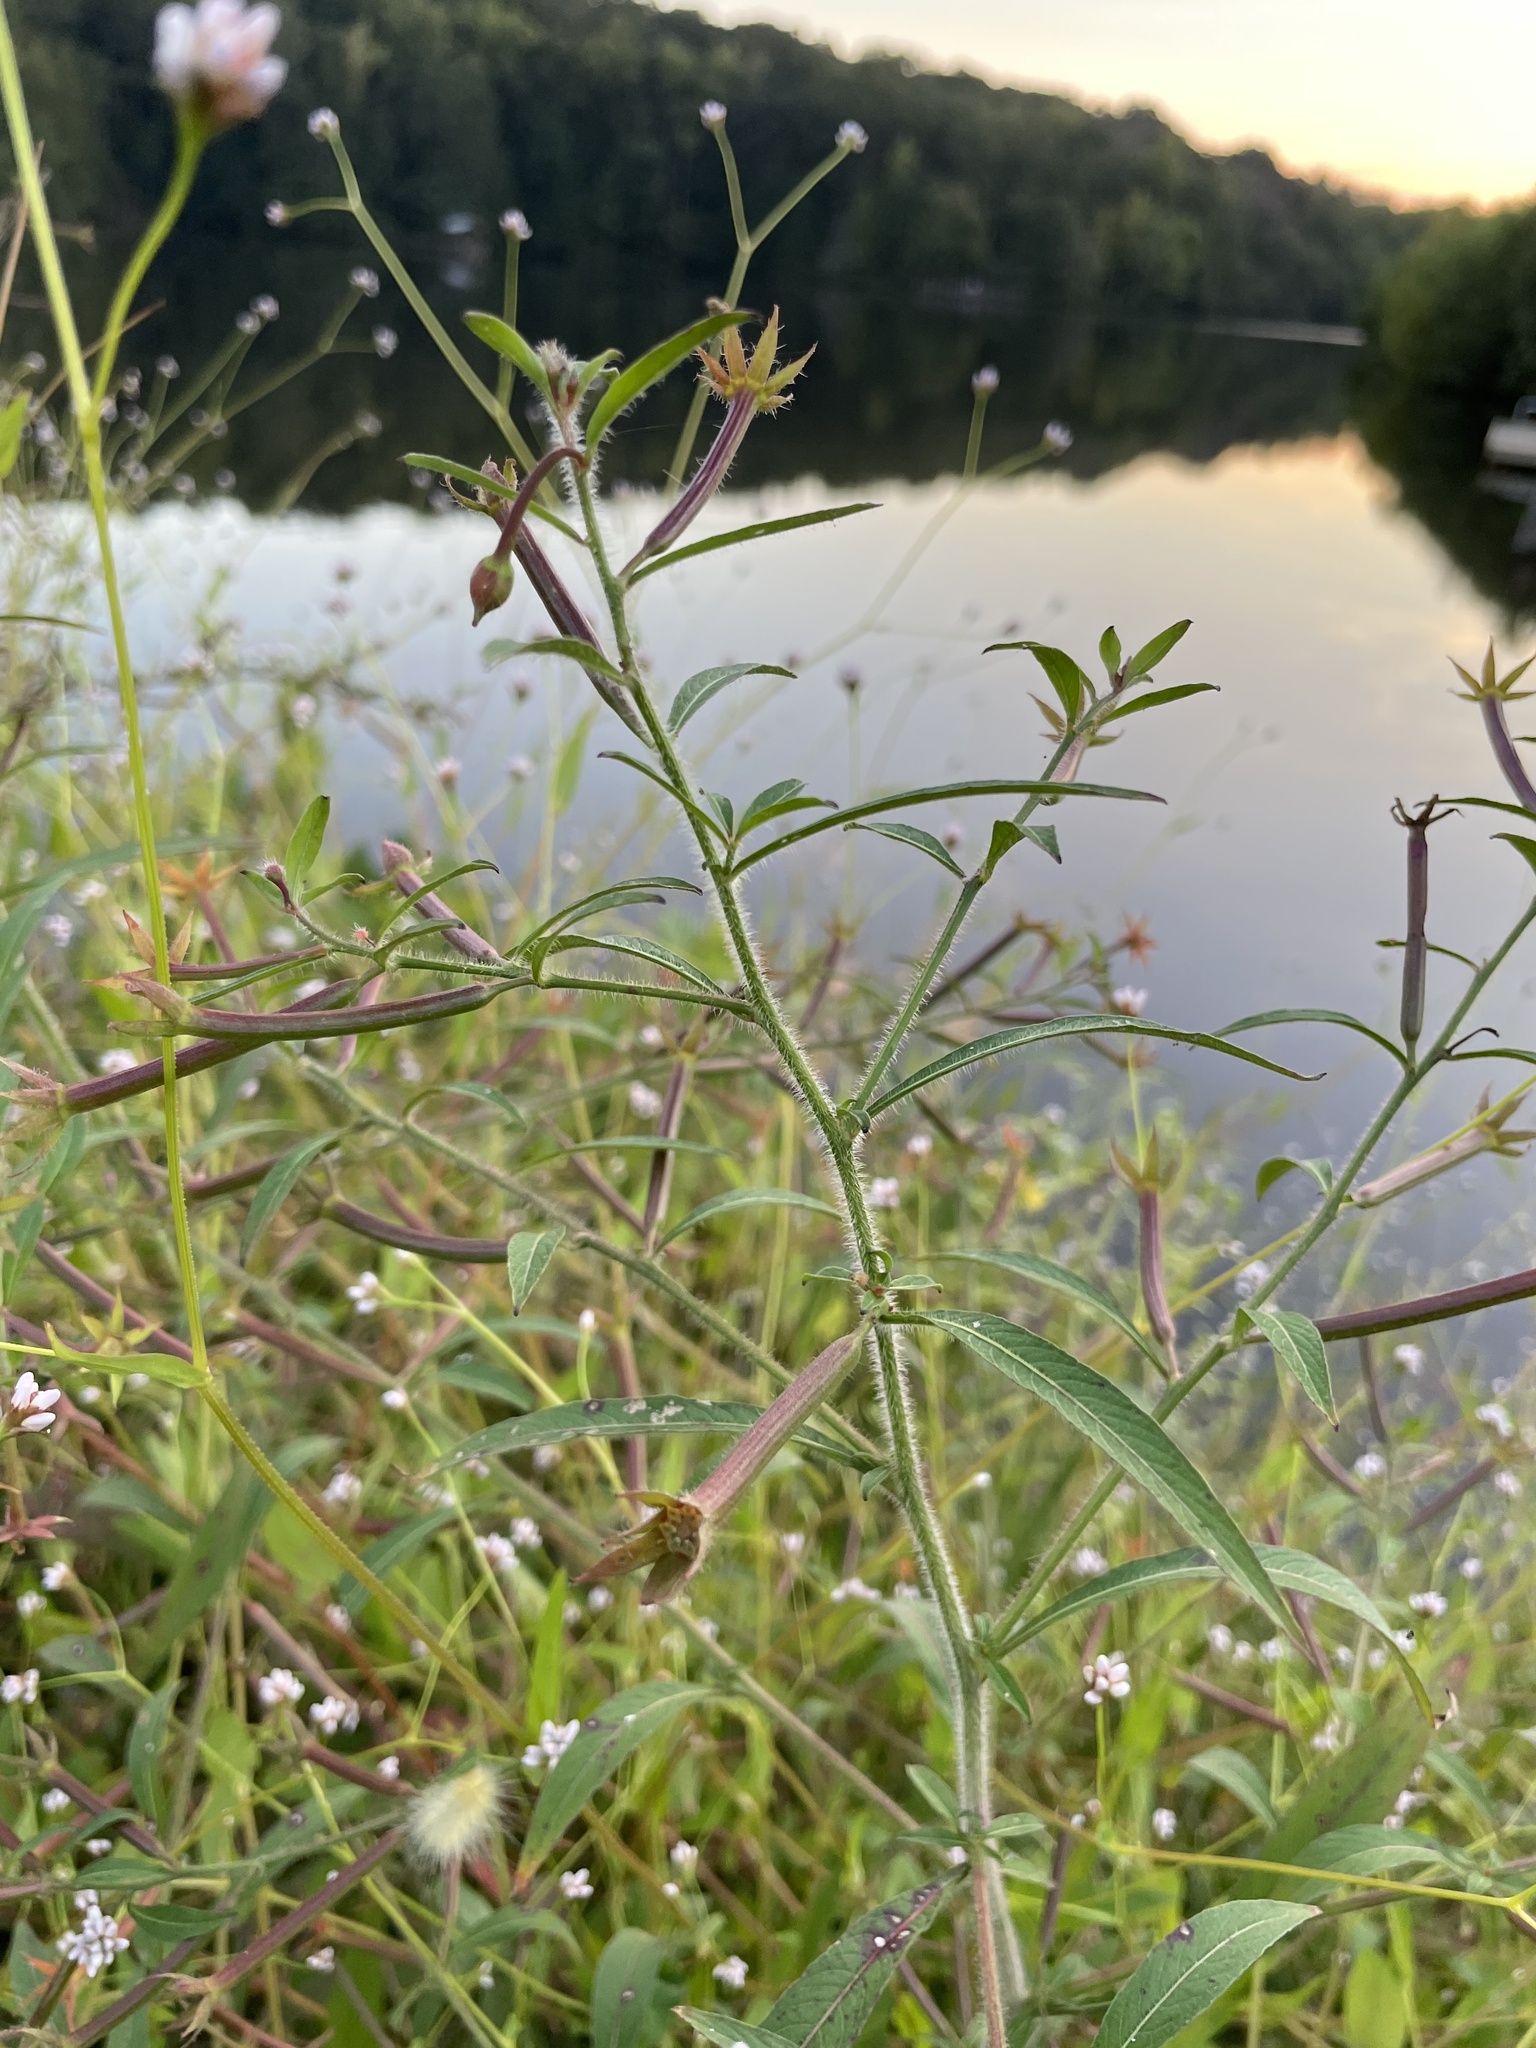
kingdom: Plantae
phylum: Tracheophyta
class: Magnoliopsida
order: Myrtales
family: Onagraceae
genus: Ludwigia
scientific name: Ludwigia leptocarpa
